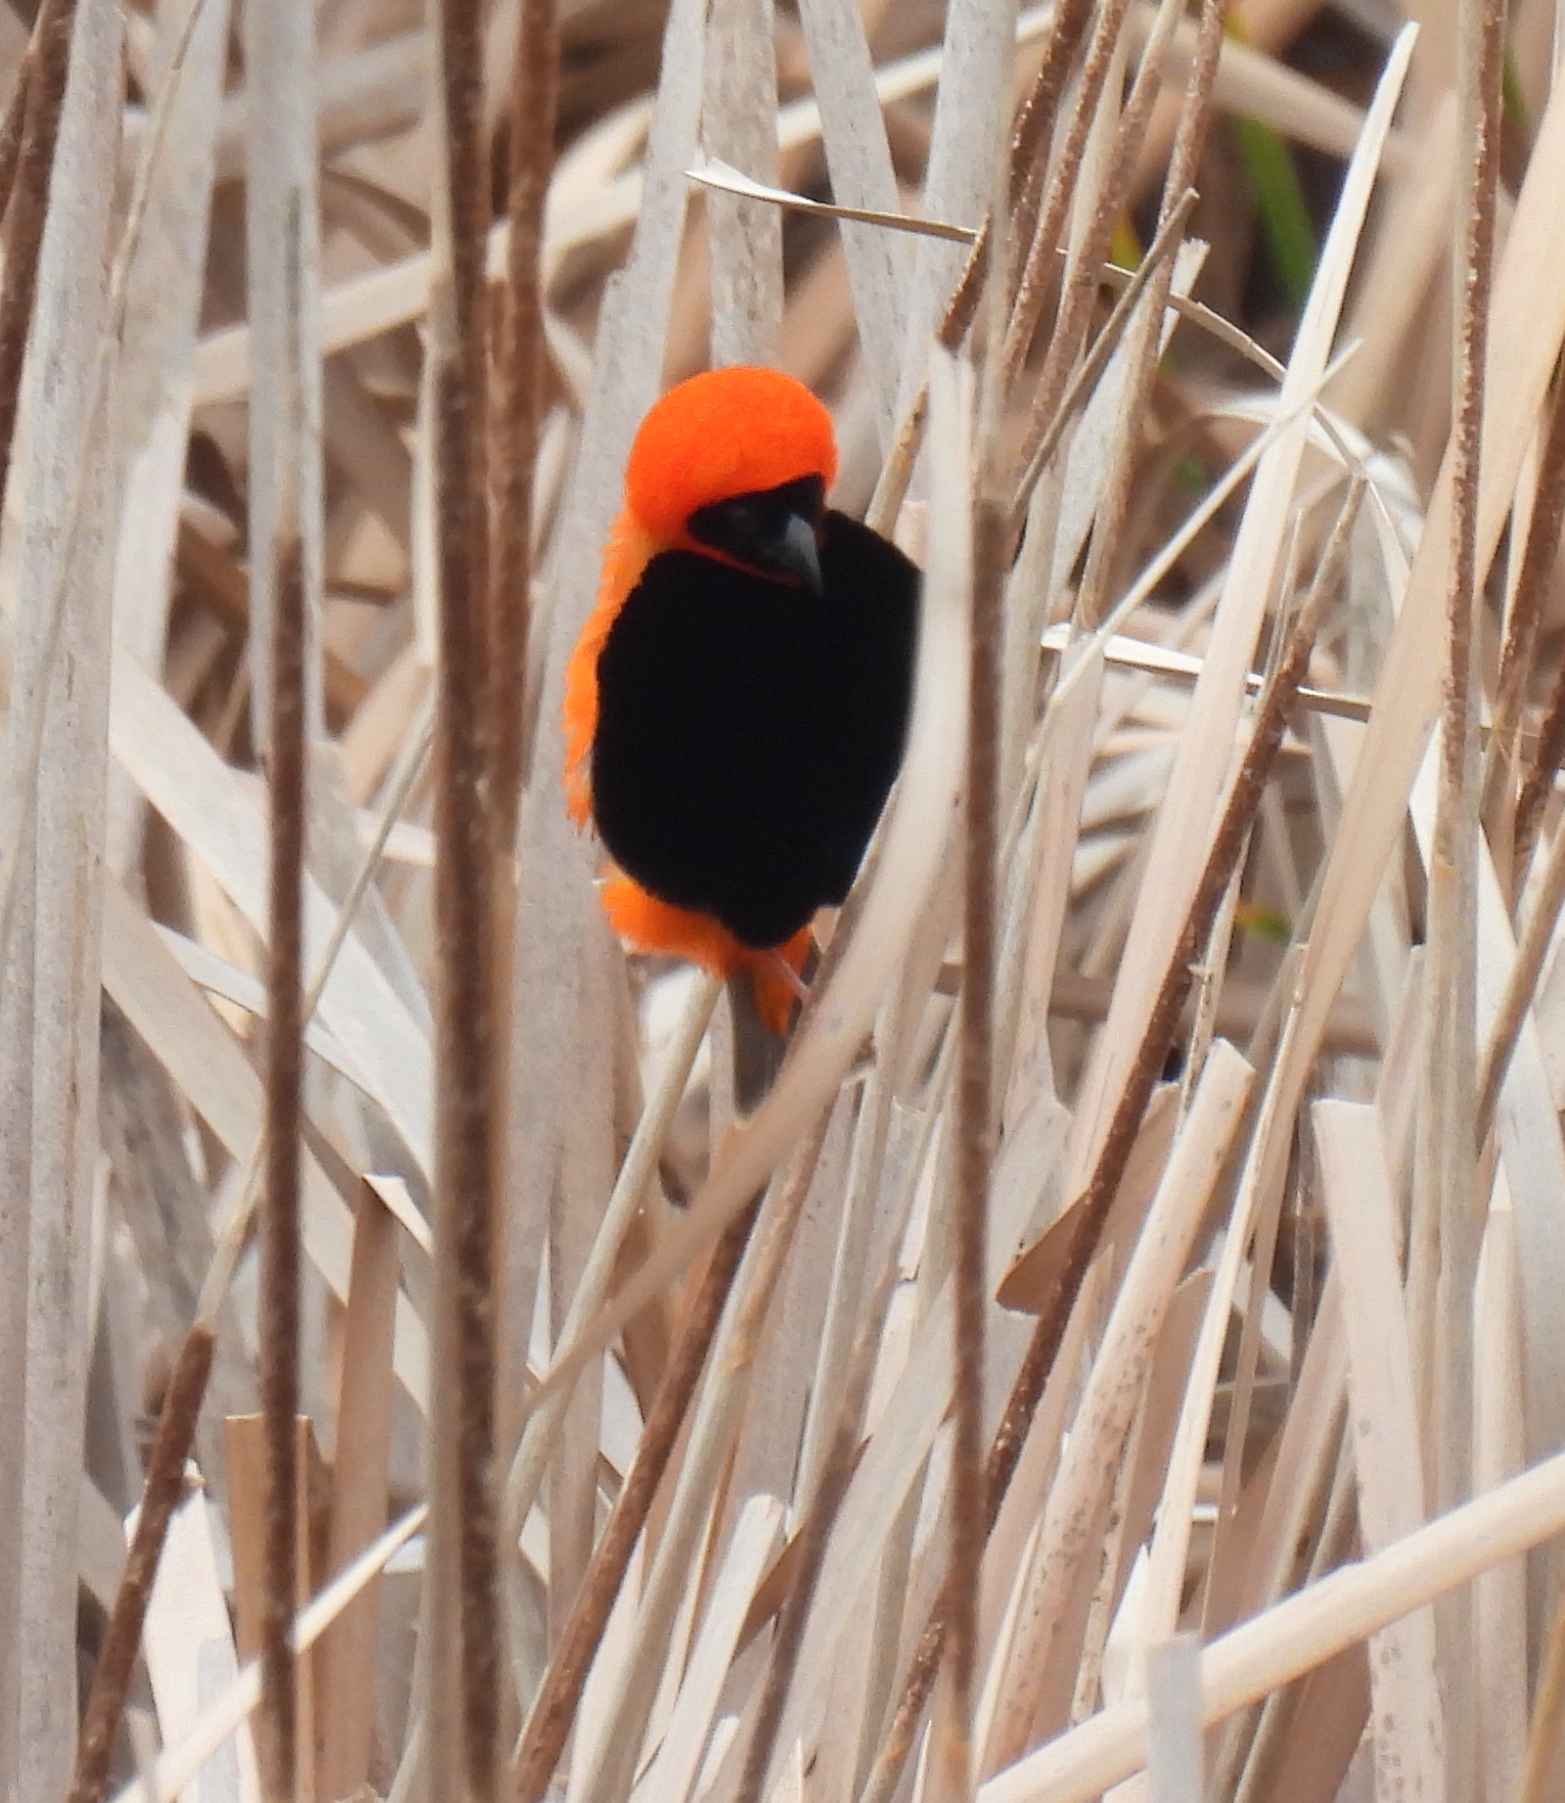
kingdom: Animalia
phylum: Chordata
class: Aves
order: Passeriformes
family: Ploceidae
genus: Euplectes
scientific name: Euplectes orix
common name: Southern red bishop
